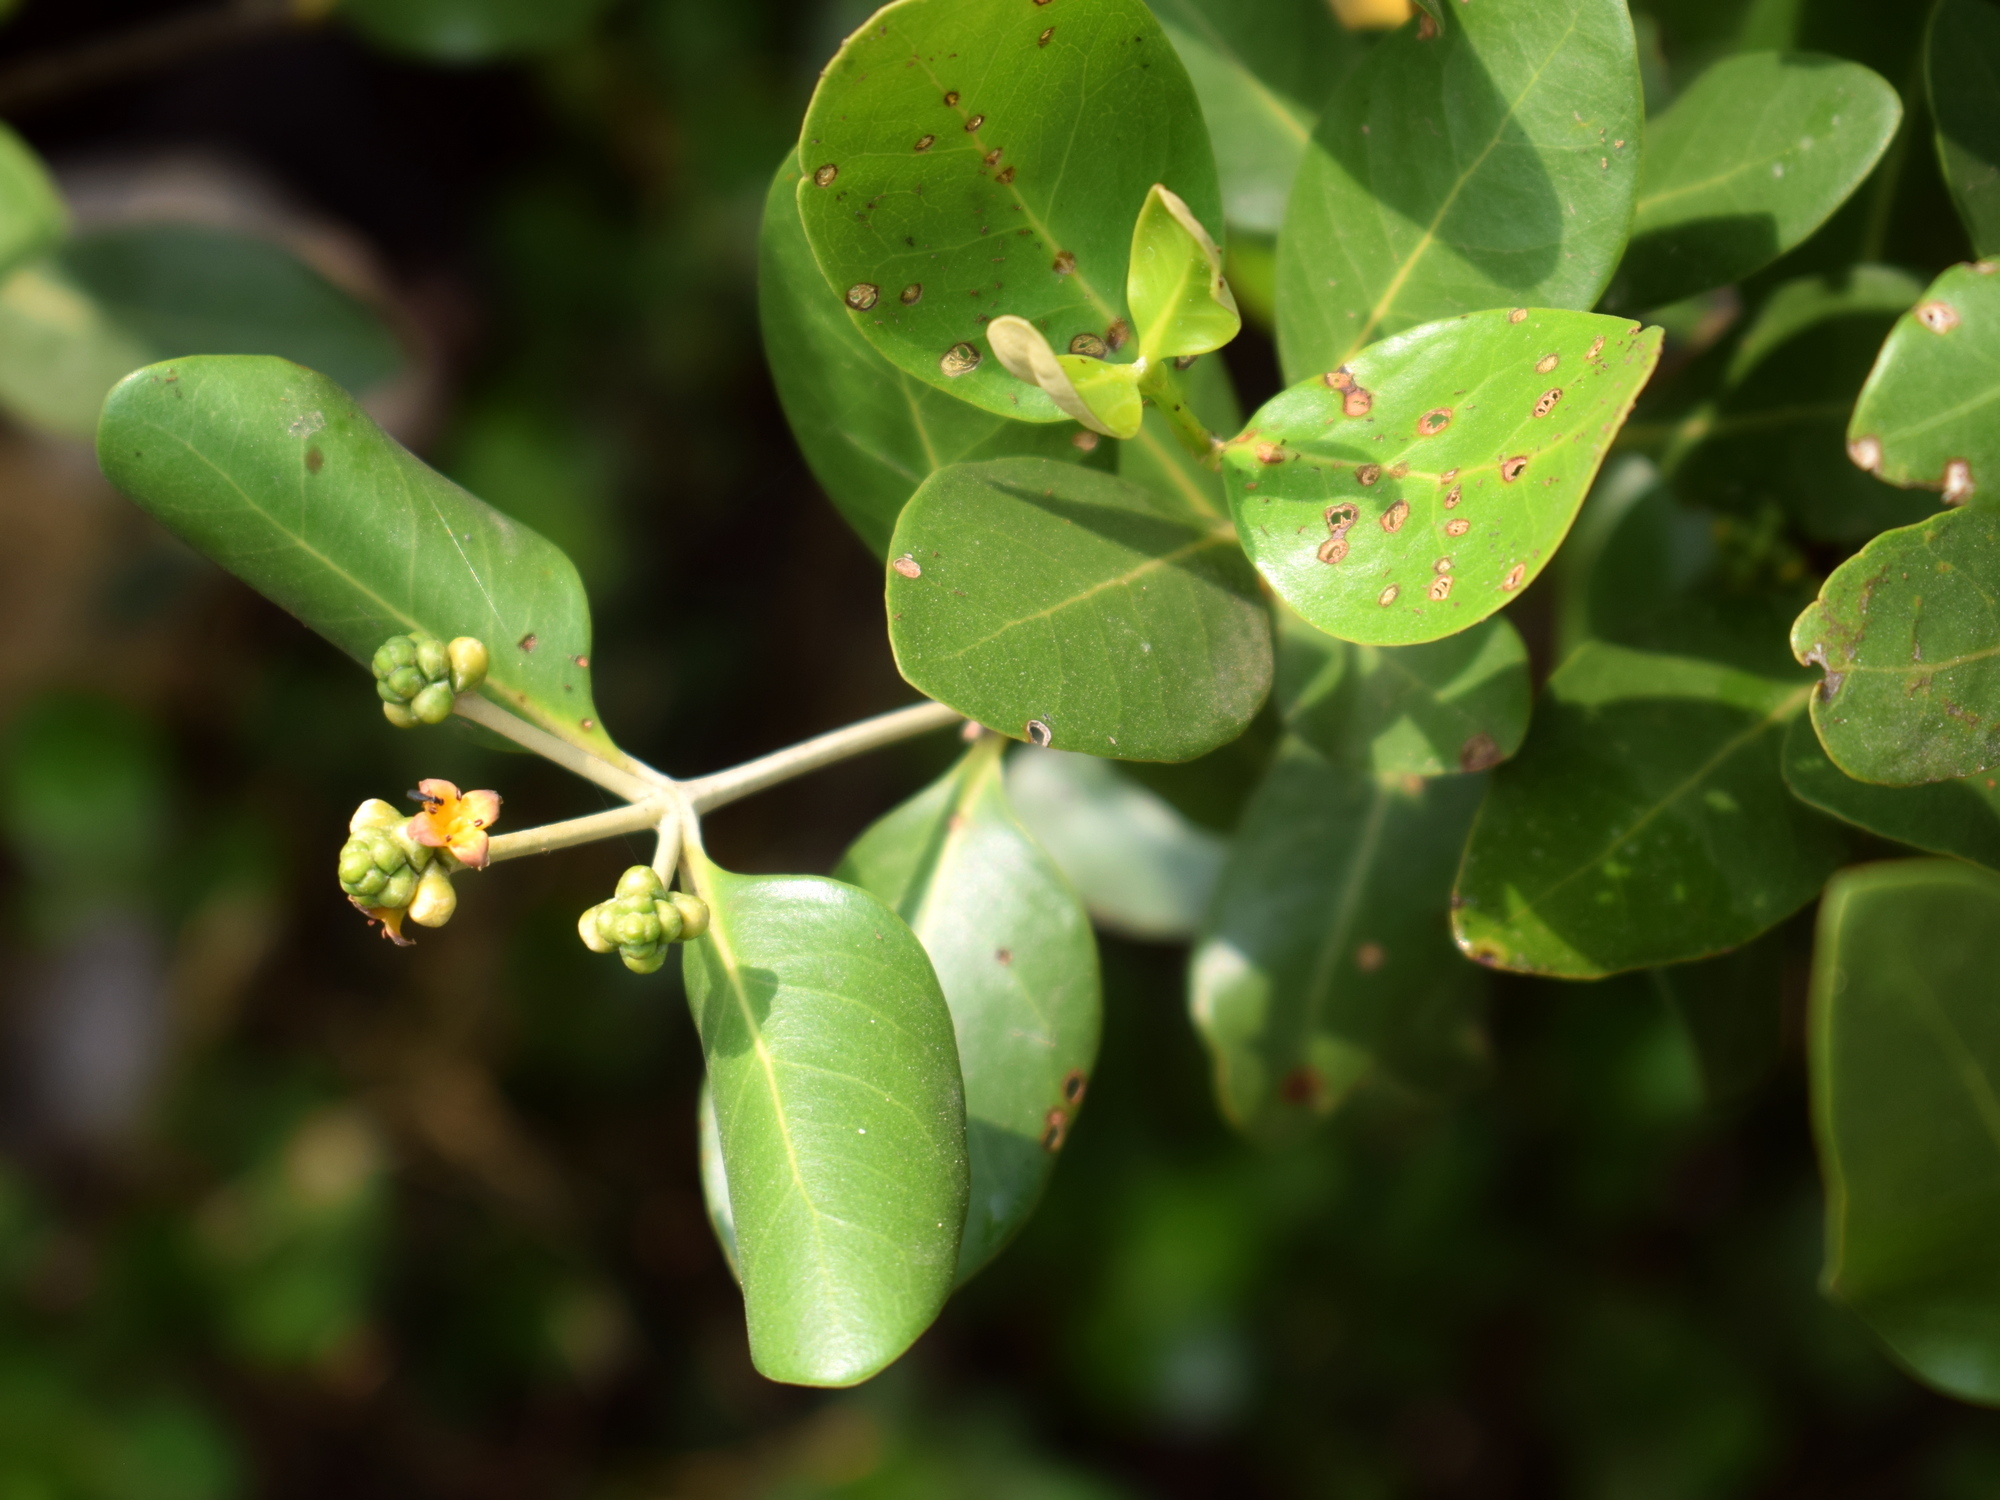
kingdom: Plantae
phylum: Tracheophyta
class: Magnoliopsida
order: Lamiales
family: Acanthaceae
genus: Avicennia
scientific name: Avicennia marina
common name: Gray mangrove
